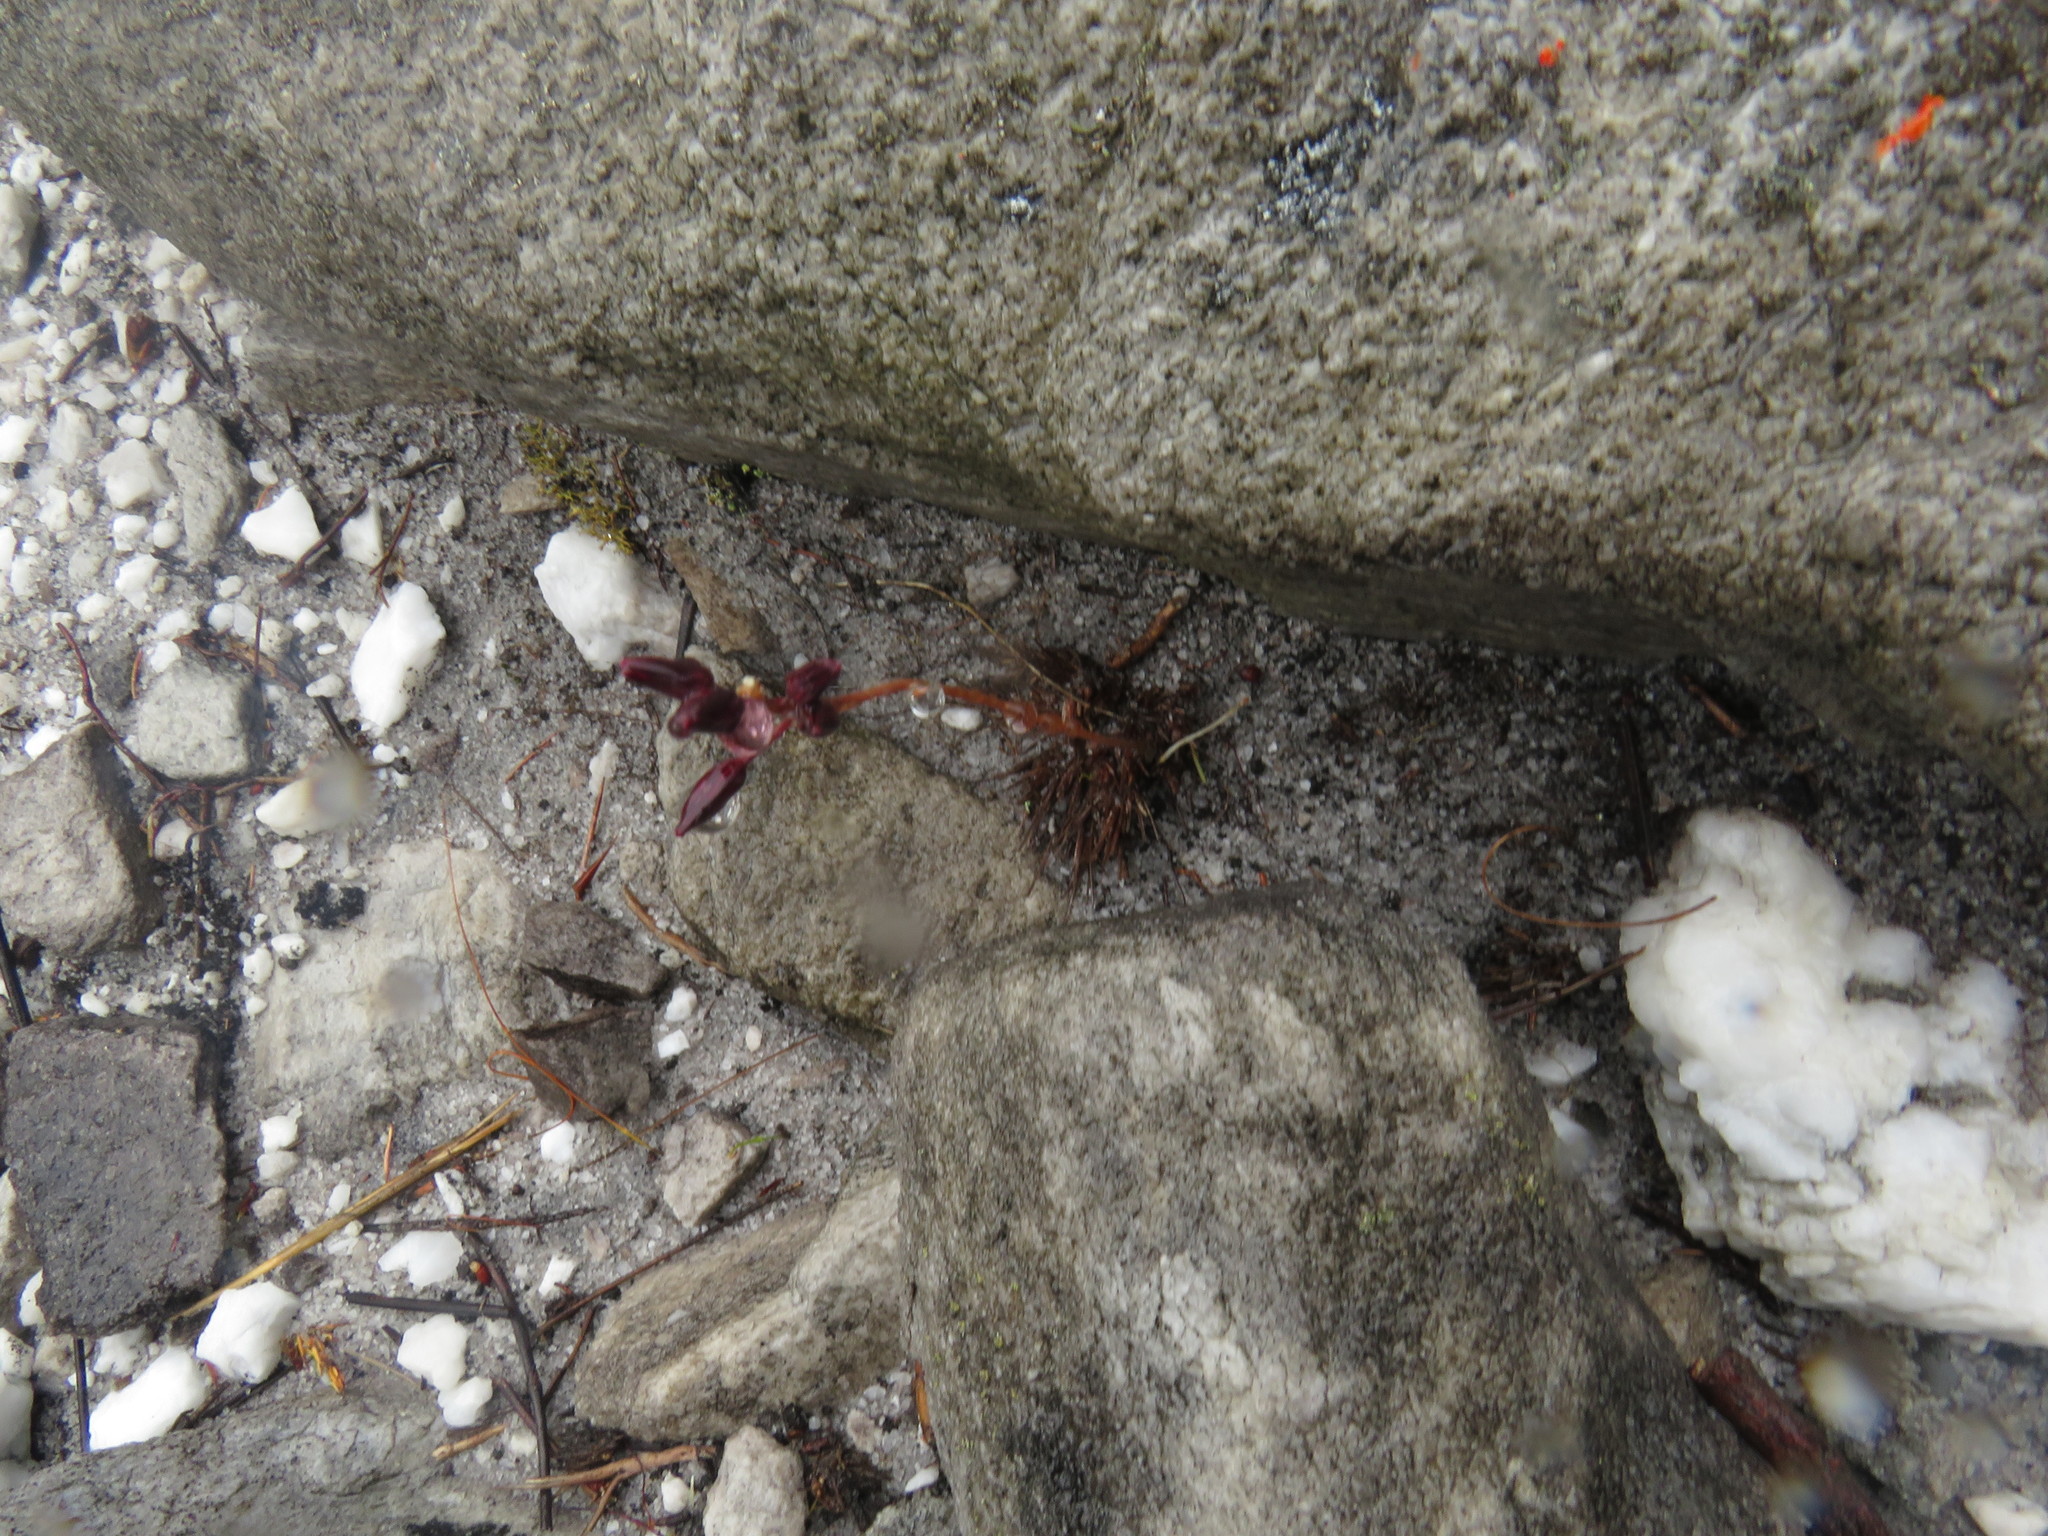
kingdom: Plantae
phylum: Tracheophyta
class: Liliopsida
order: Asparagales
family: Asparagaceae
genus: Drimia
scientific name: Drimia salteri
